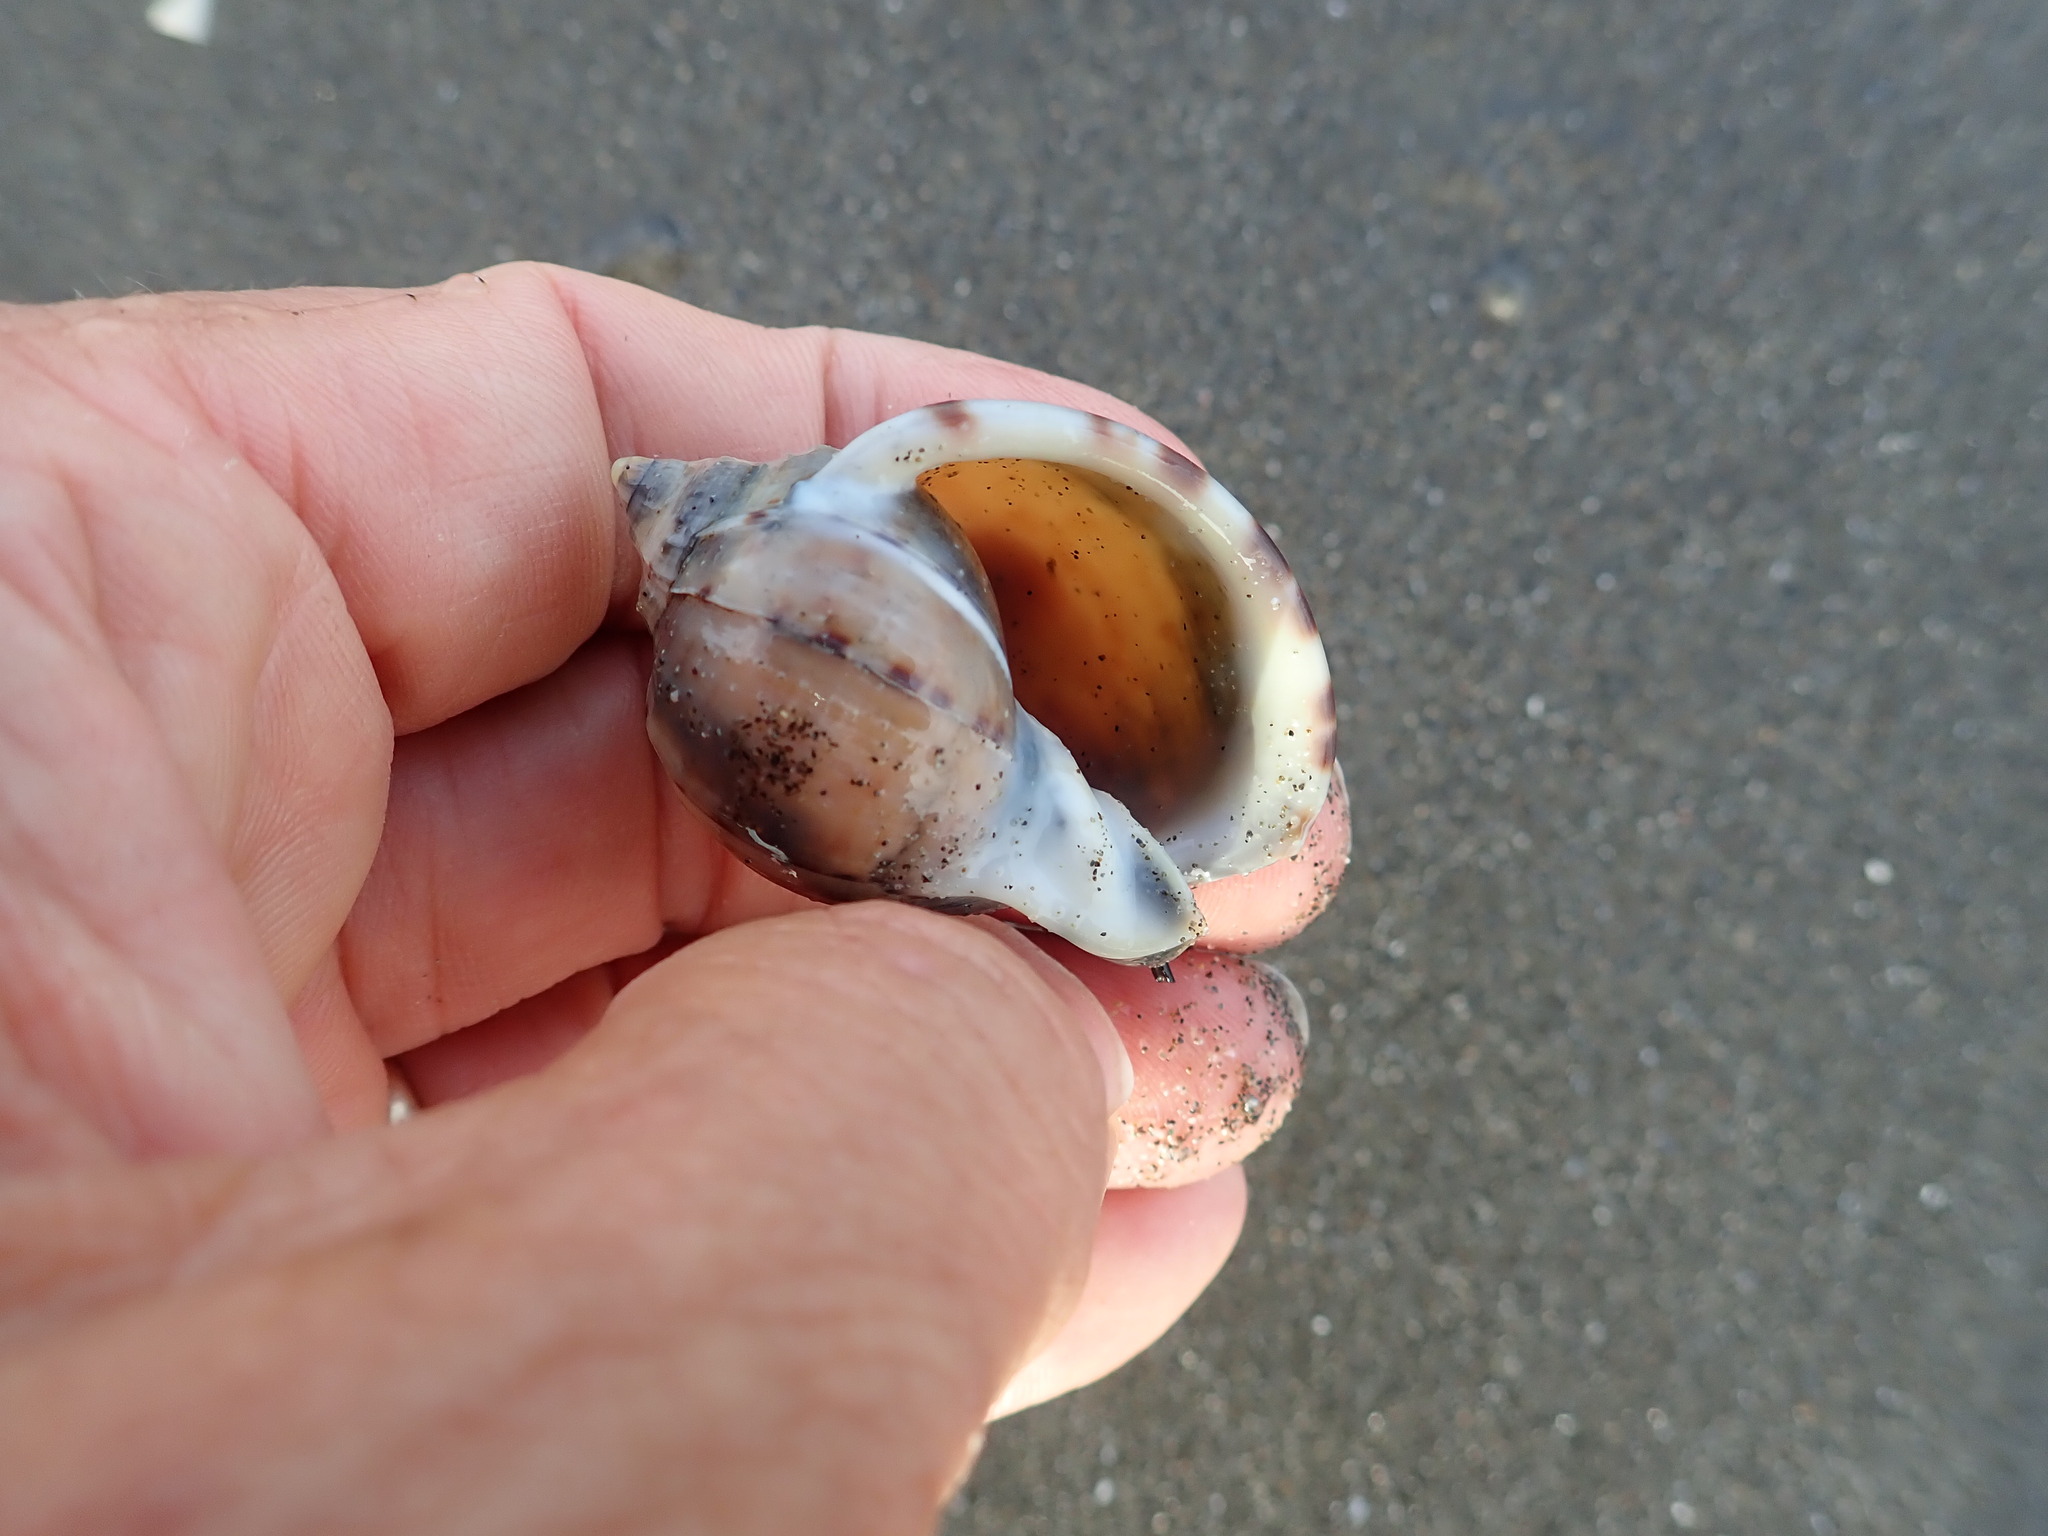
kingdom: Animalia
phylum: Mollusca
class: Gastropoda
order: Littorinimorpha
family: Cassidae
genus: Semicassis
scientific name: Semicassis pyrum
